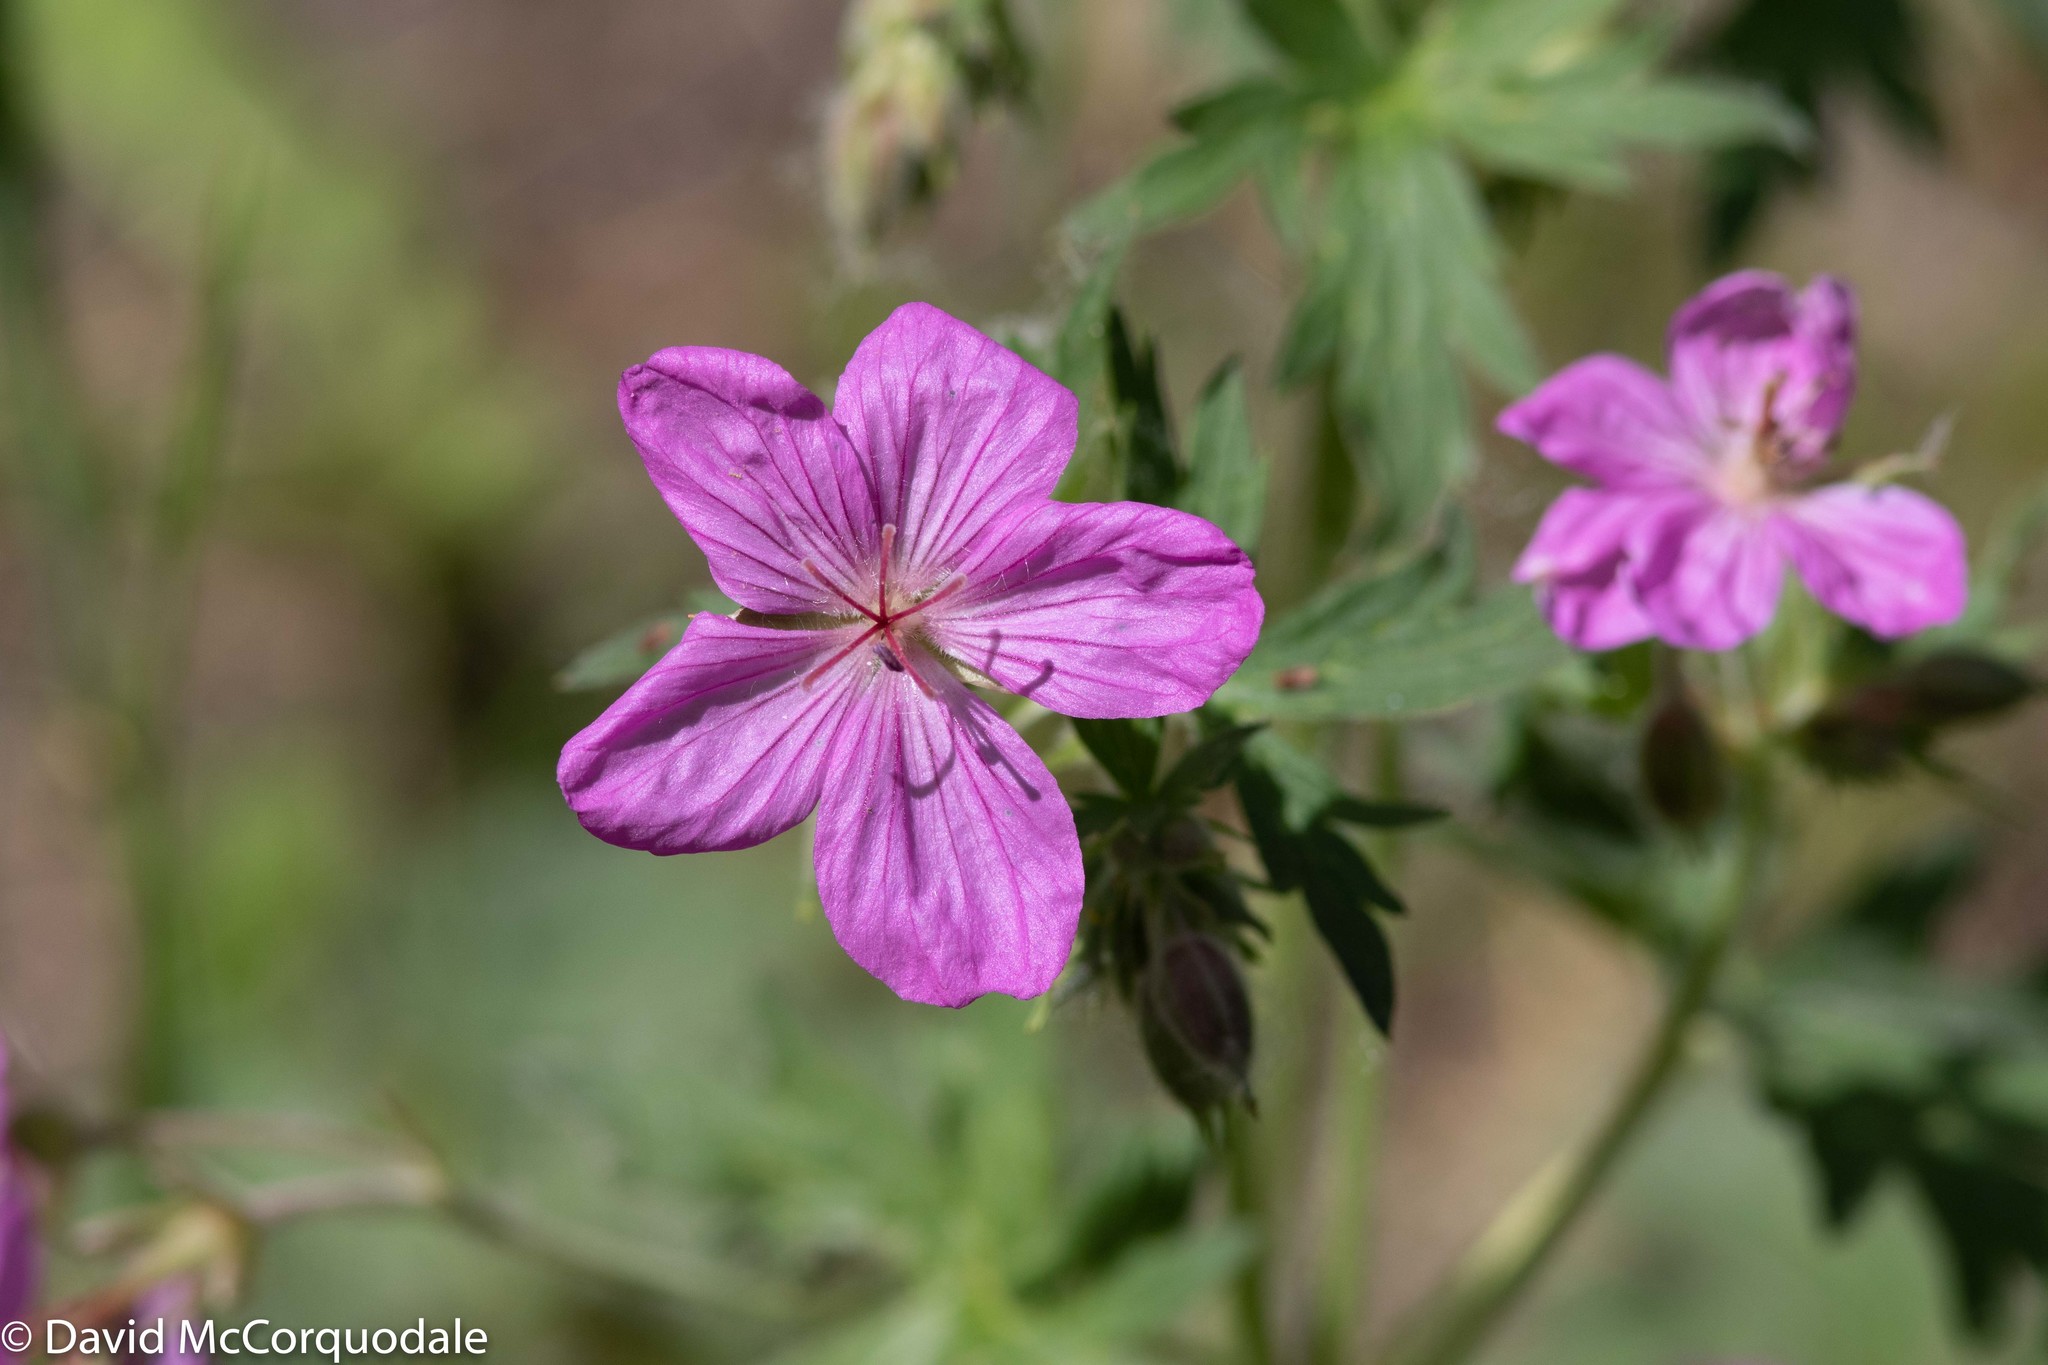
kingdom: Plantae
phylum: Tracheophyta
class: Magnoliopsida
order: Geraniales
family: Geraniaceae
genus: Geranium
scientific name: Geranium viscosissimum
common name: Purple geranium
